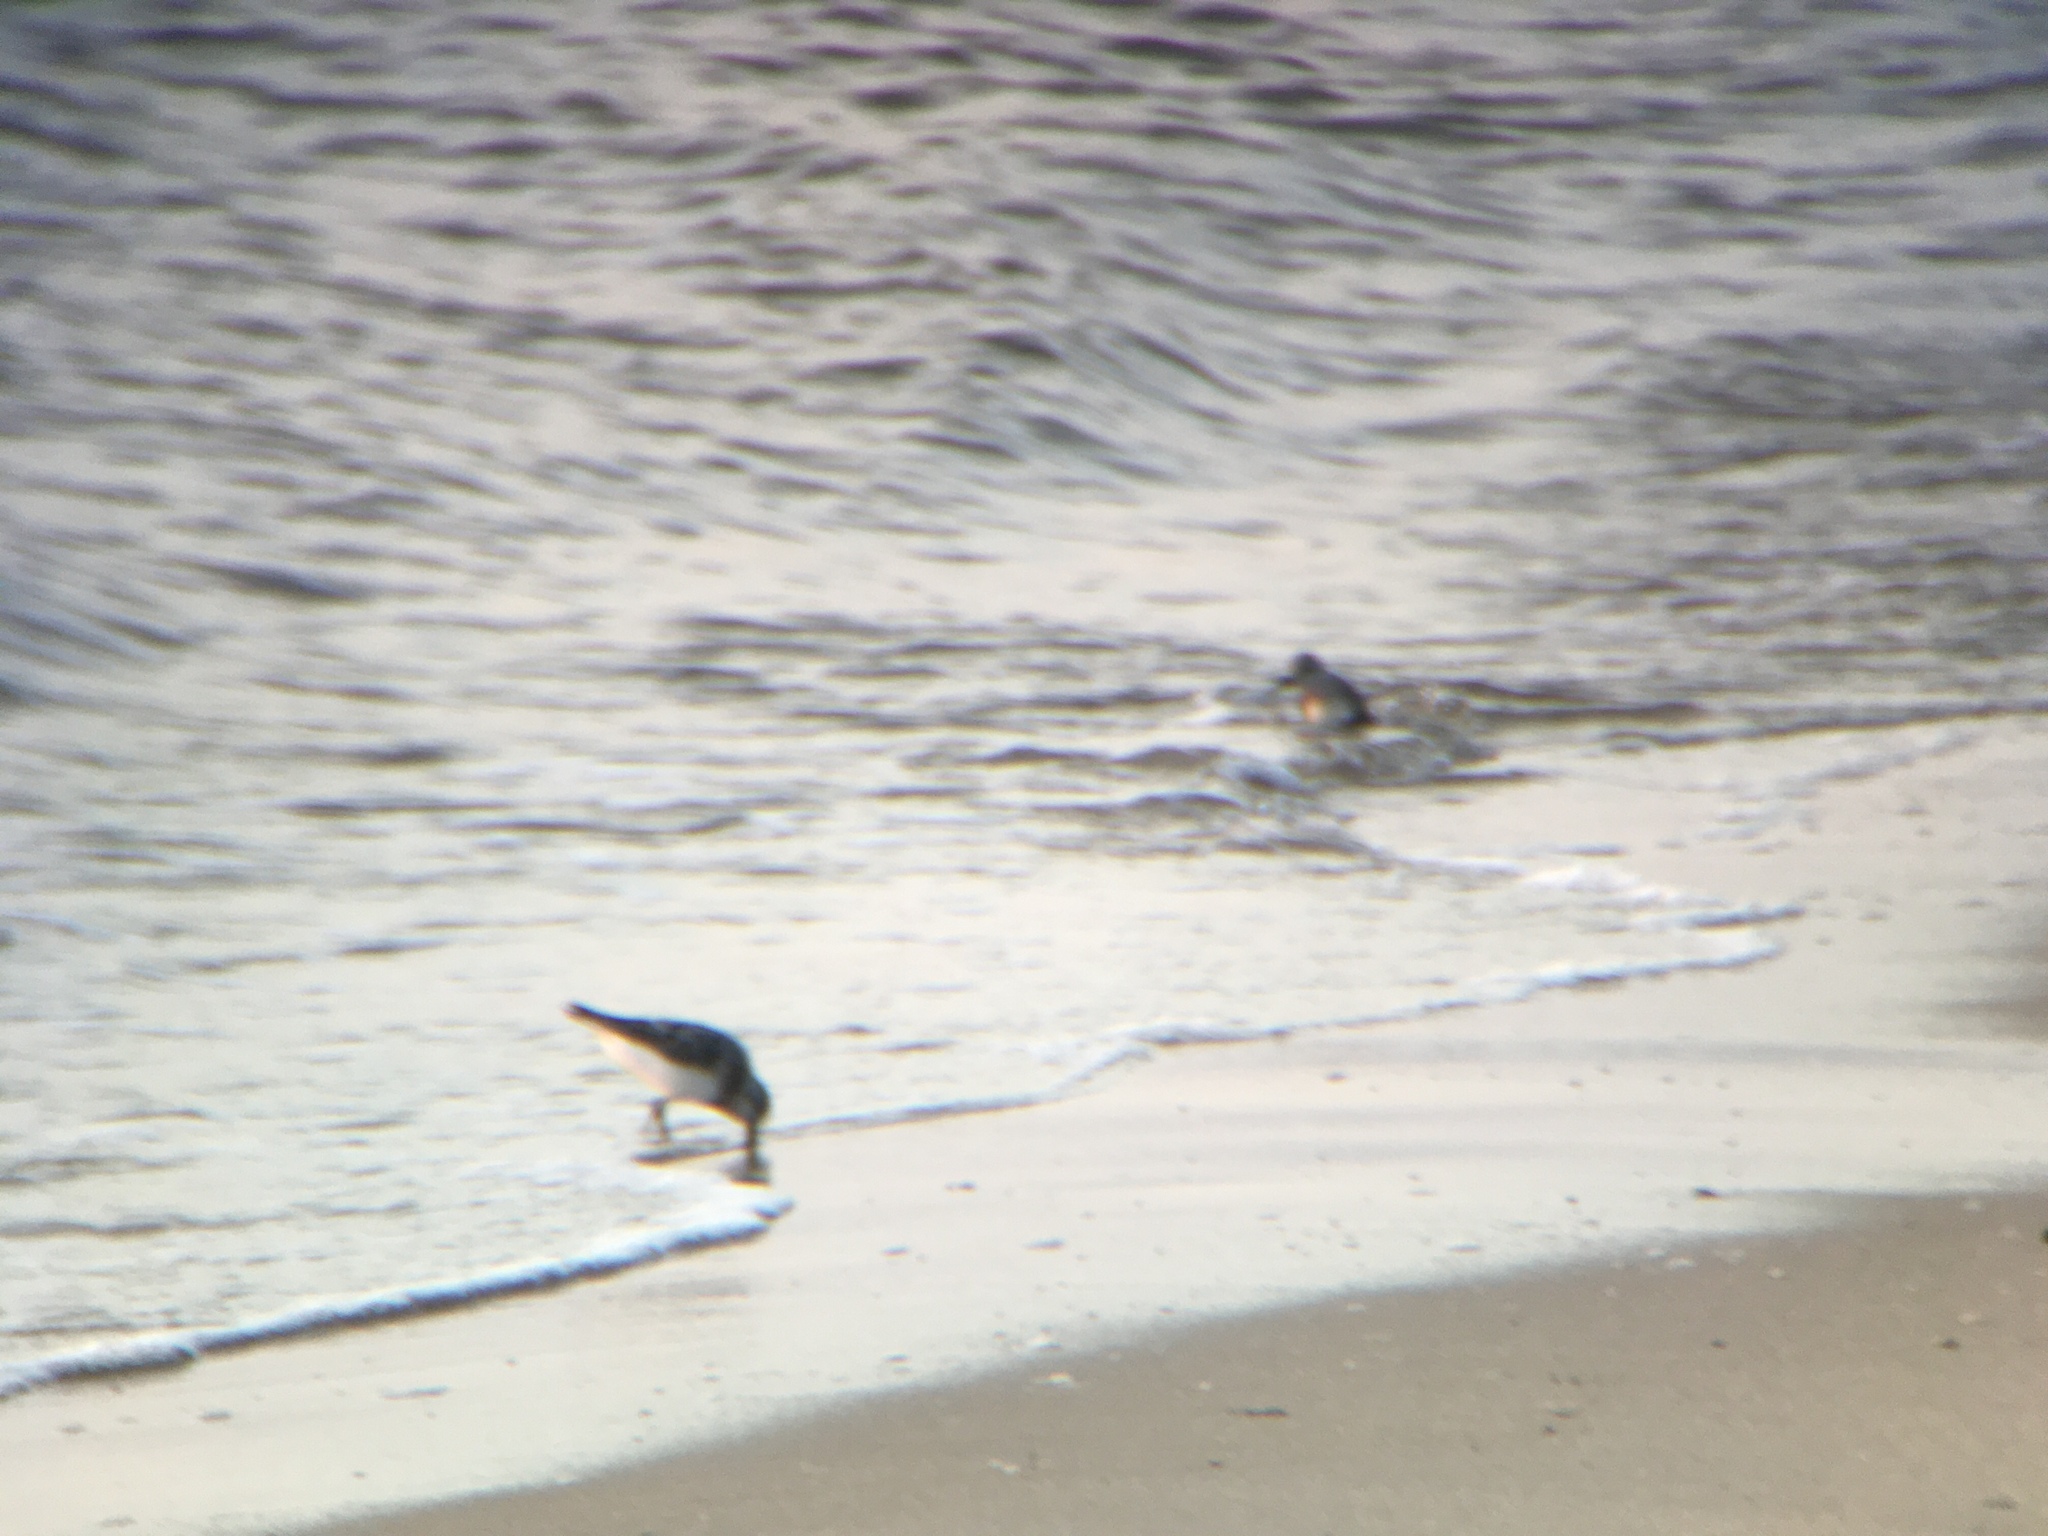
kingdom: Animalia
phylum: Chordata
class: Aves
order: Charadriiformes
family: Scolopacidae
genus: Calidris
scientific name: Calidris alba
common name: Sanderling
